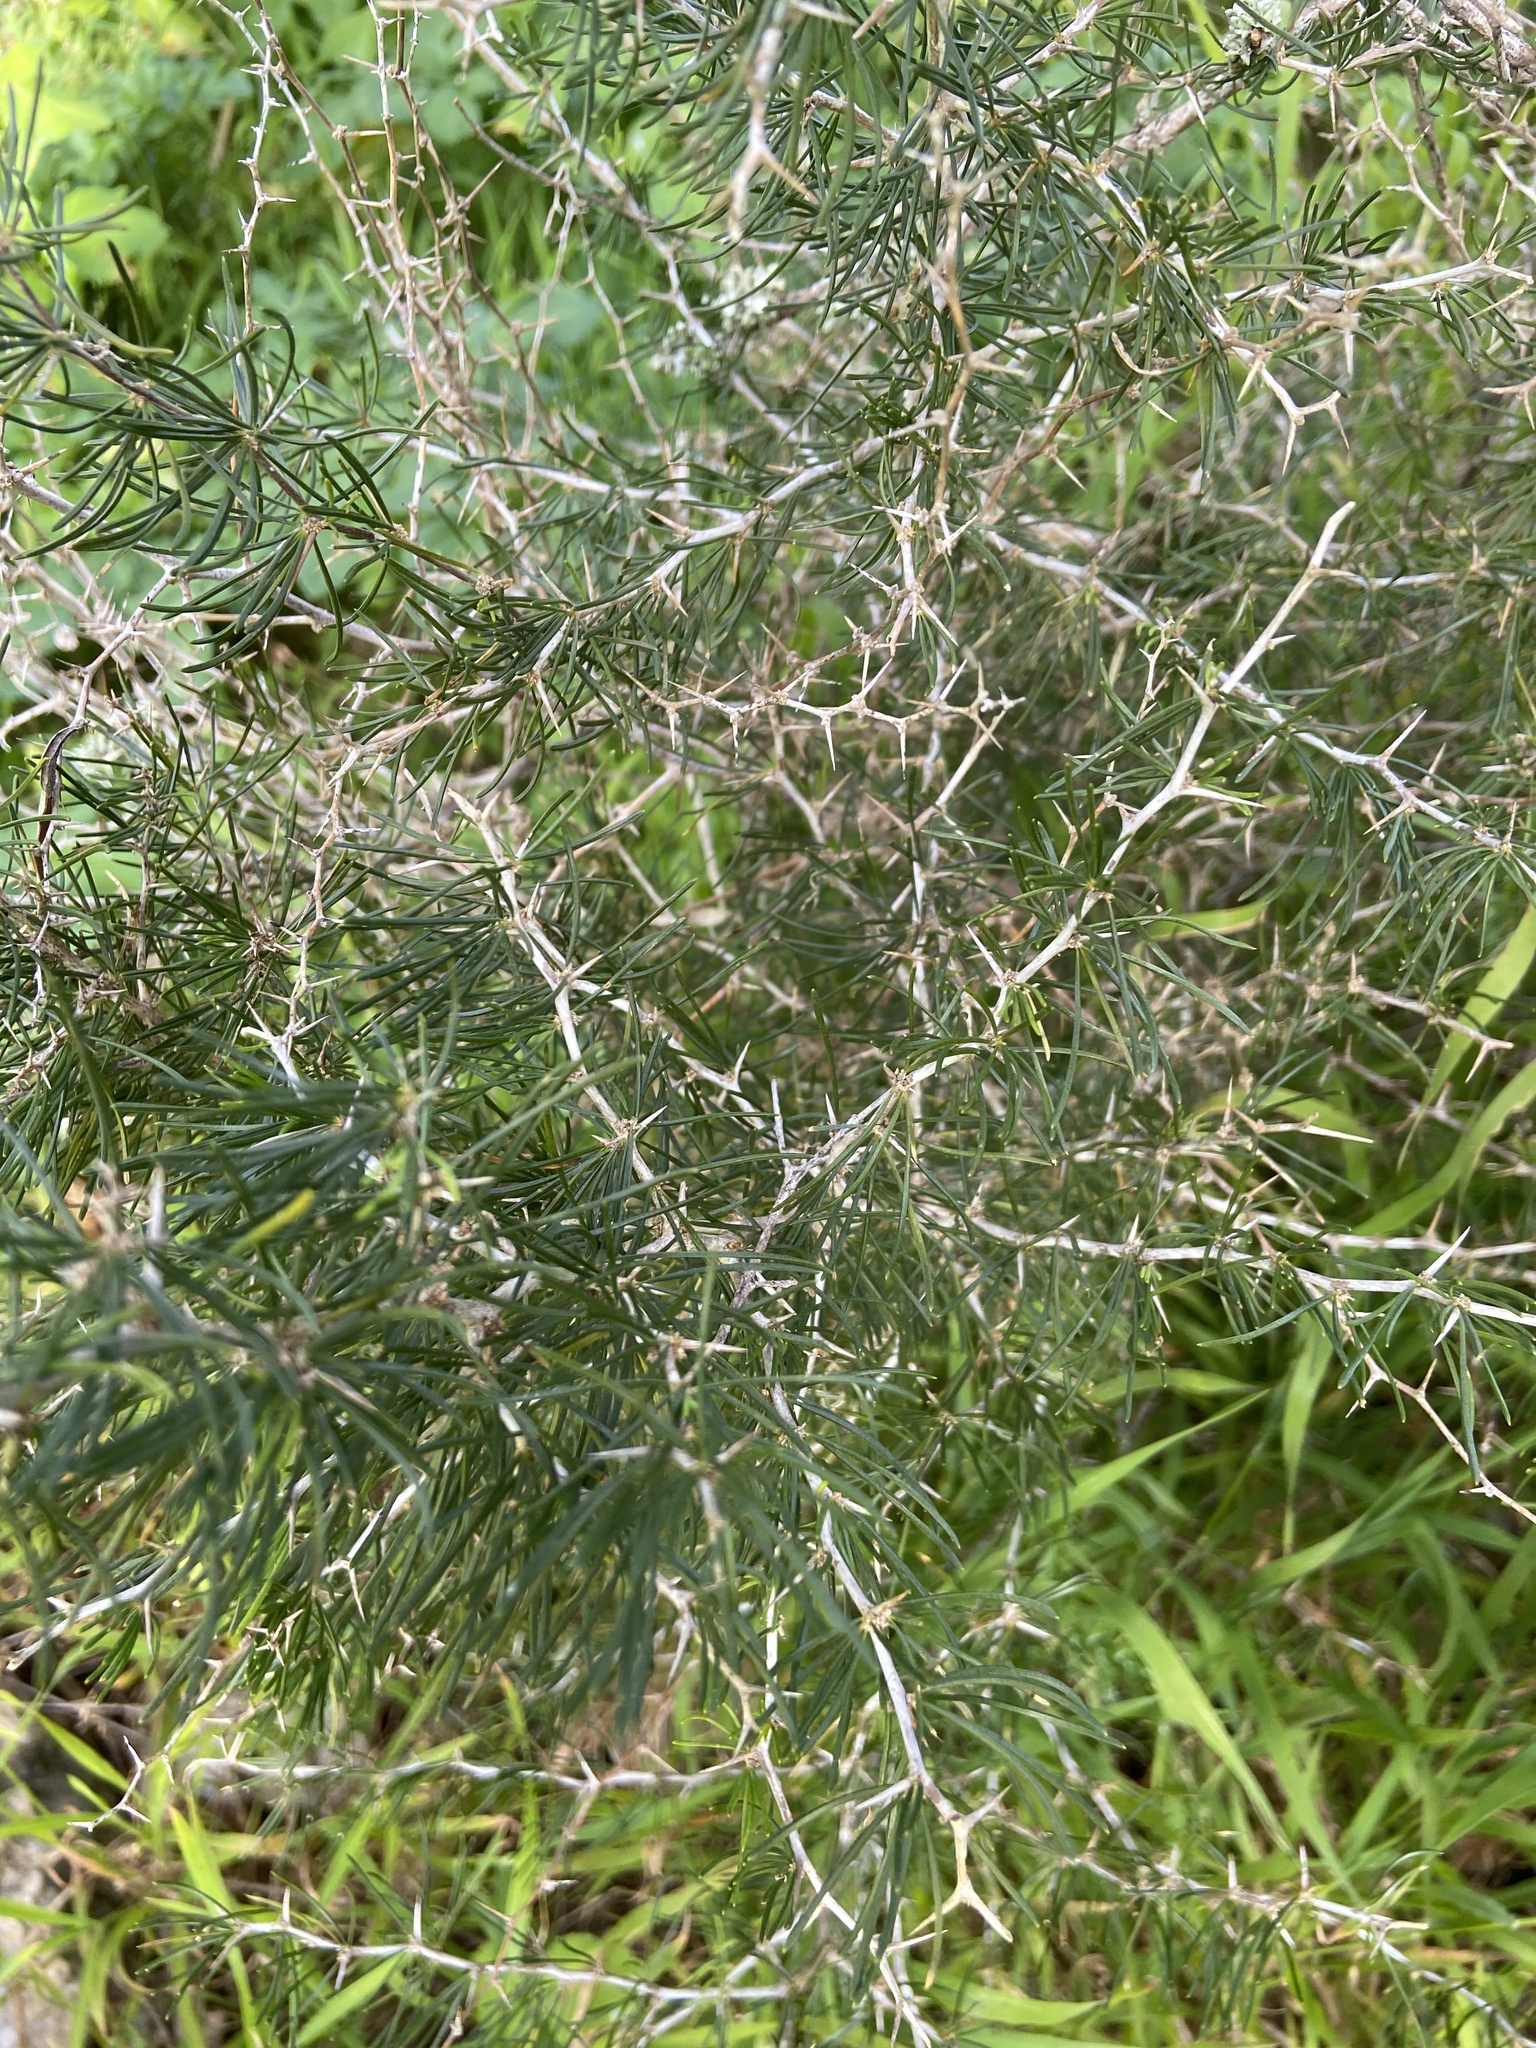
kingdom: Plantae
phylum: Tracheophyta
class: Liliopsida
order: Asparagales
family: Asparagaceae
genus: Asparagus
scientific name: Asparagus albus
